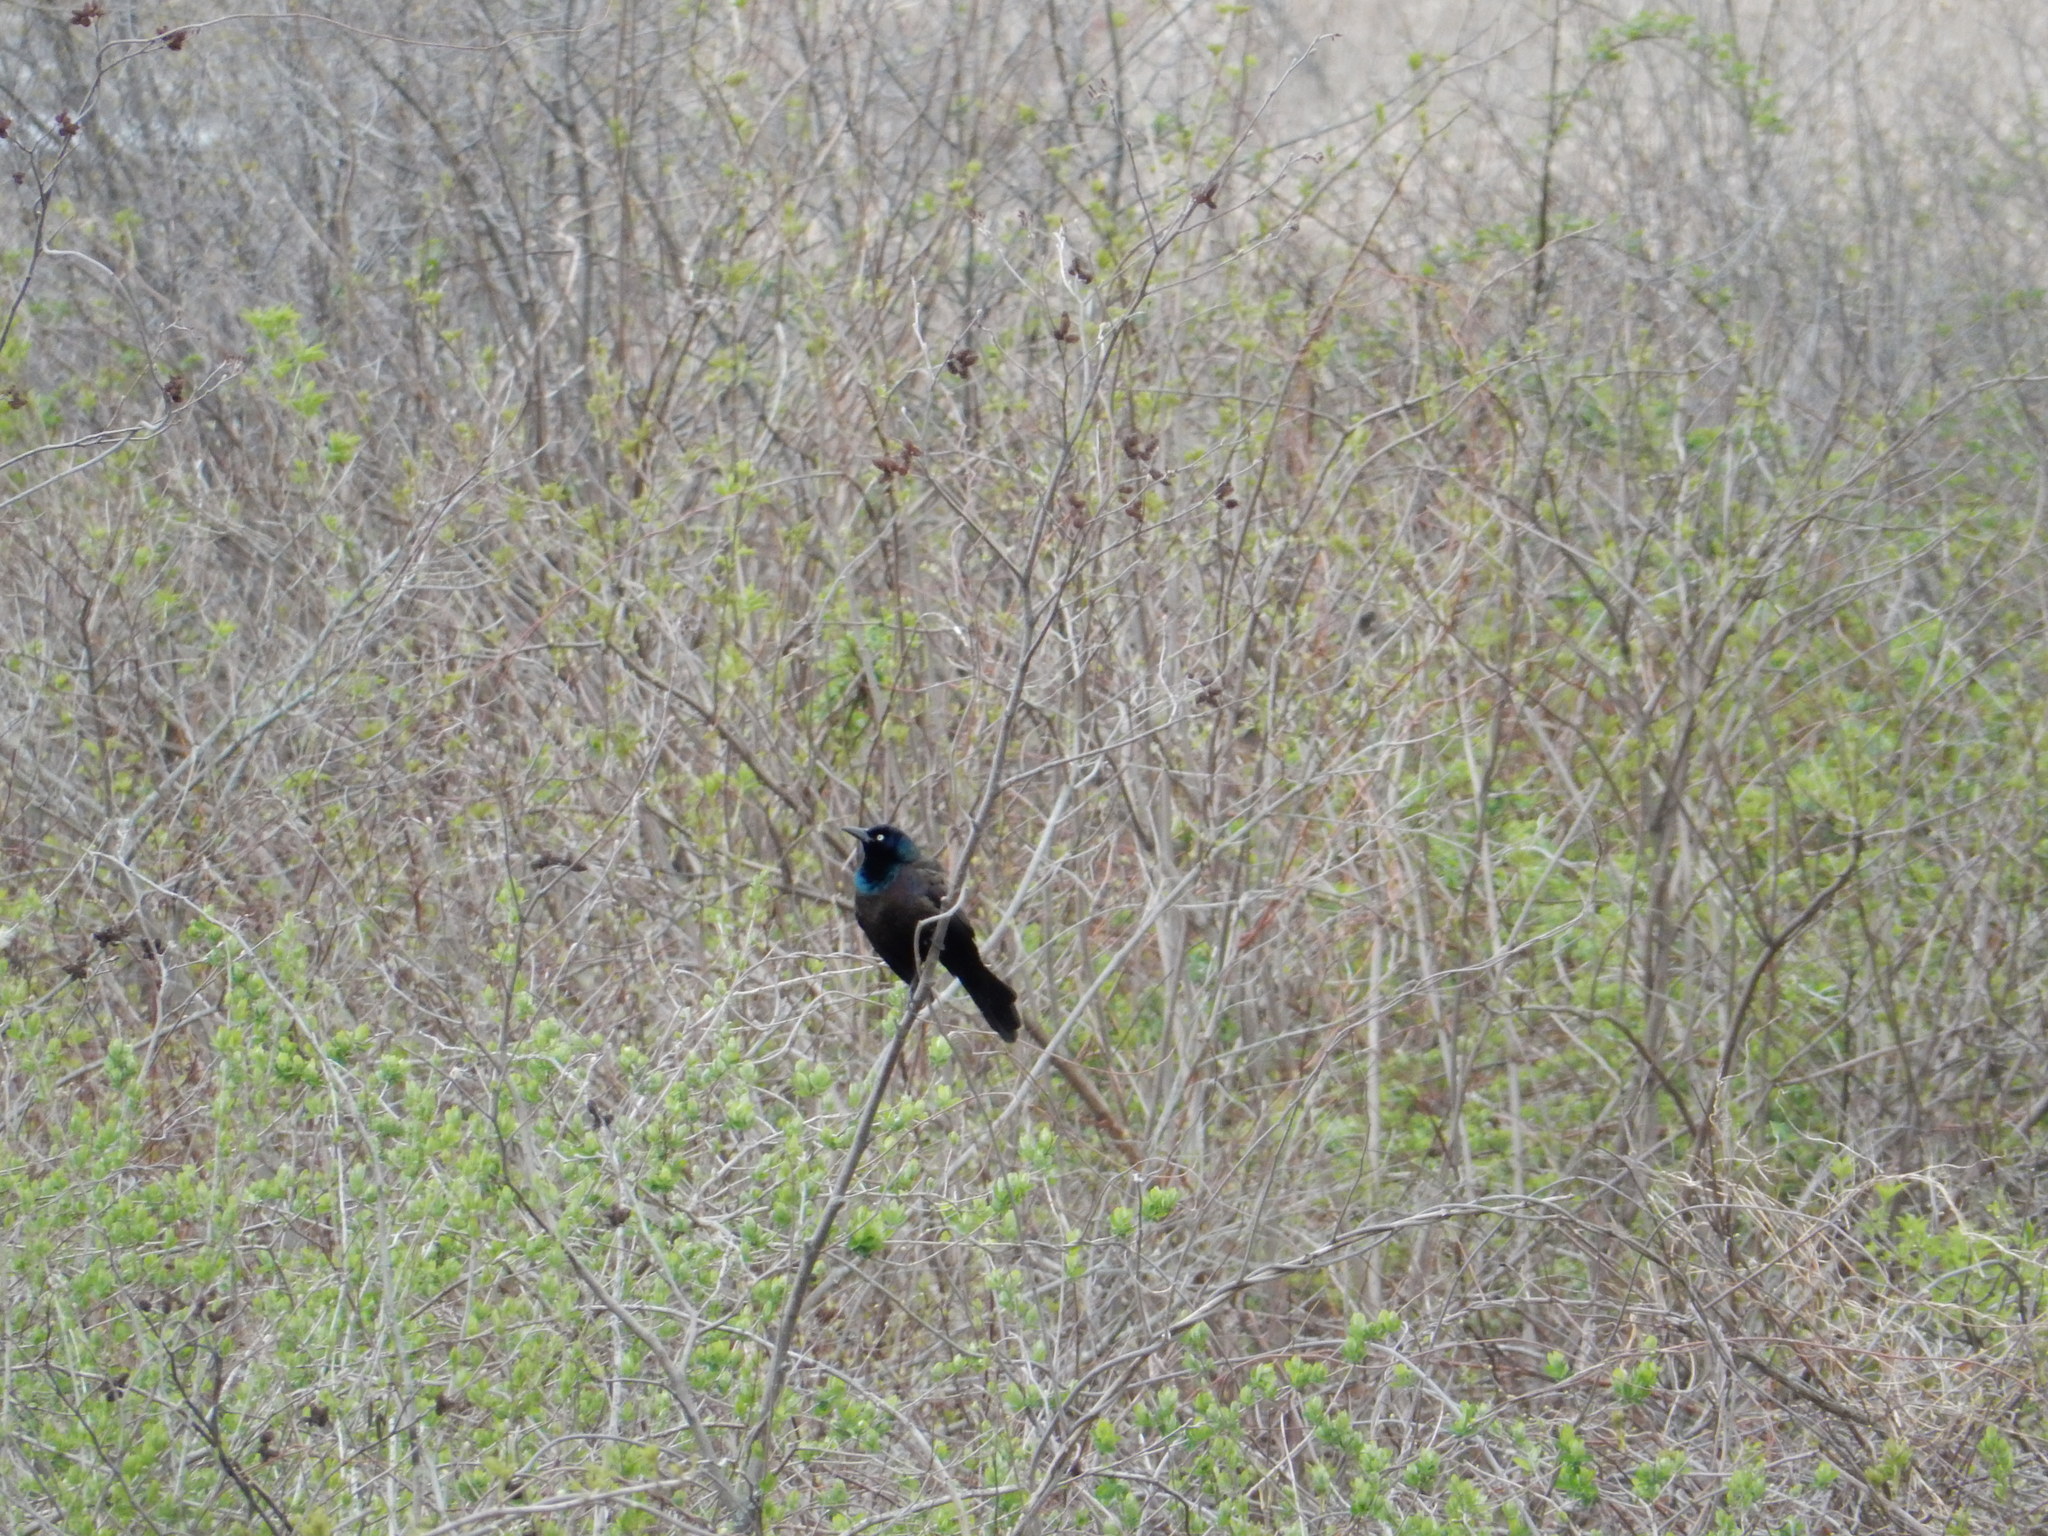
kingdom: Animalia
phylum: Chordata
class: Aves
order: Passeriformes
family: Icteridae
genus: Quiscalus
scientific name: Quiscalus quiscula
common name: Common grackle
